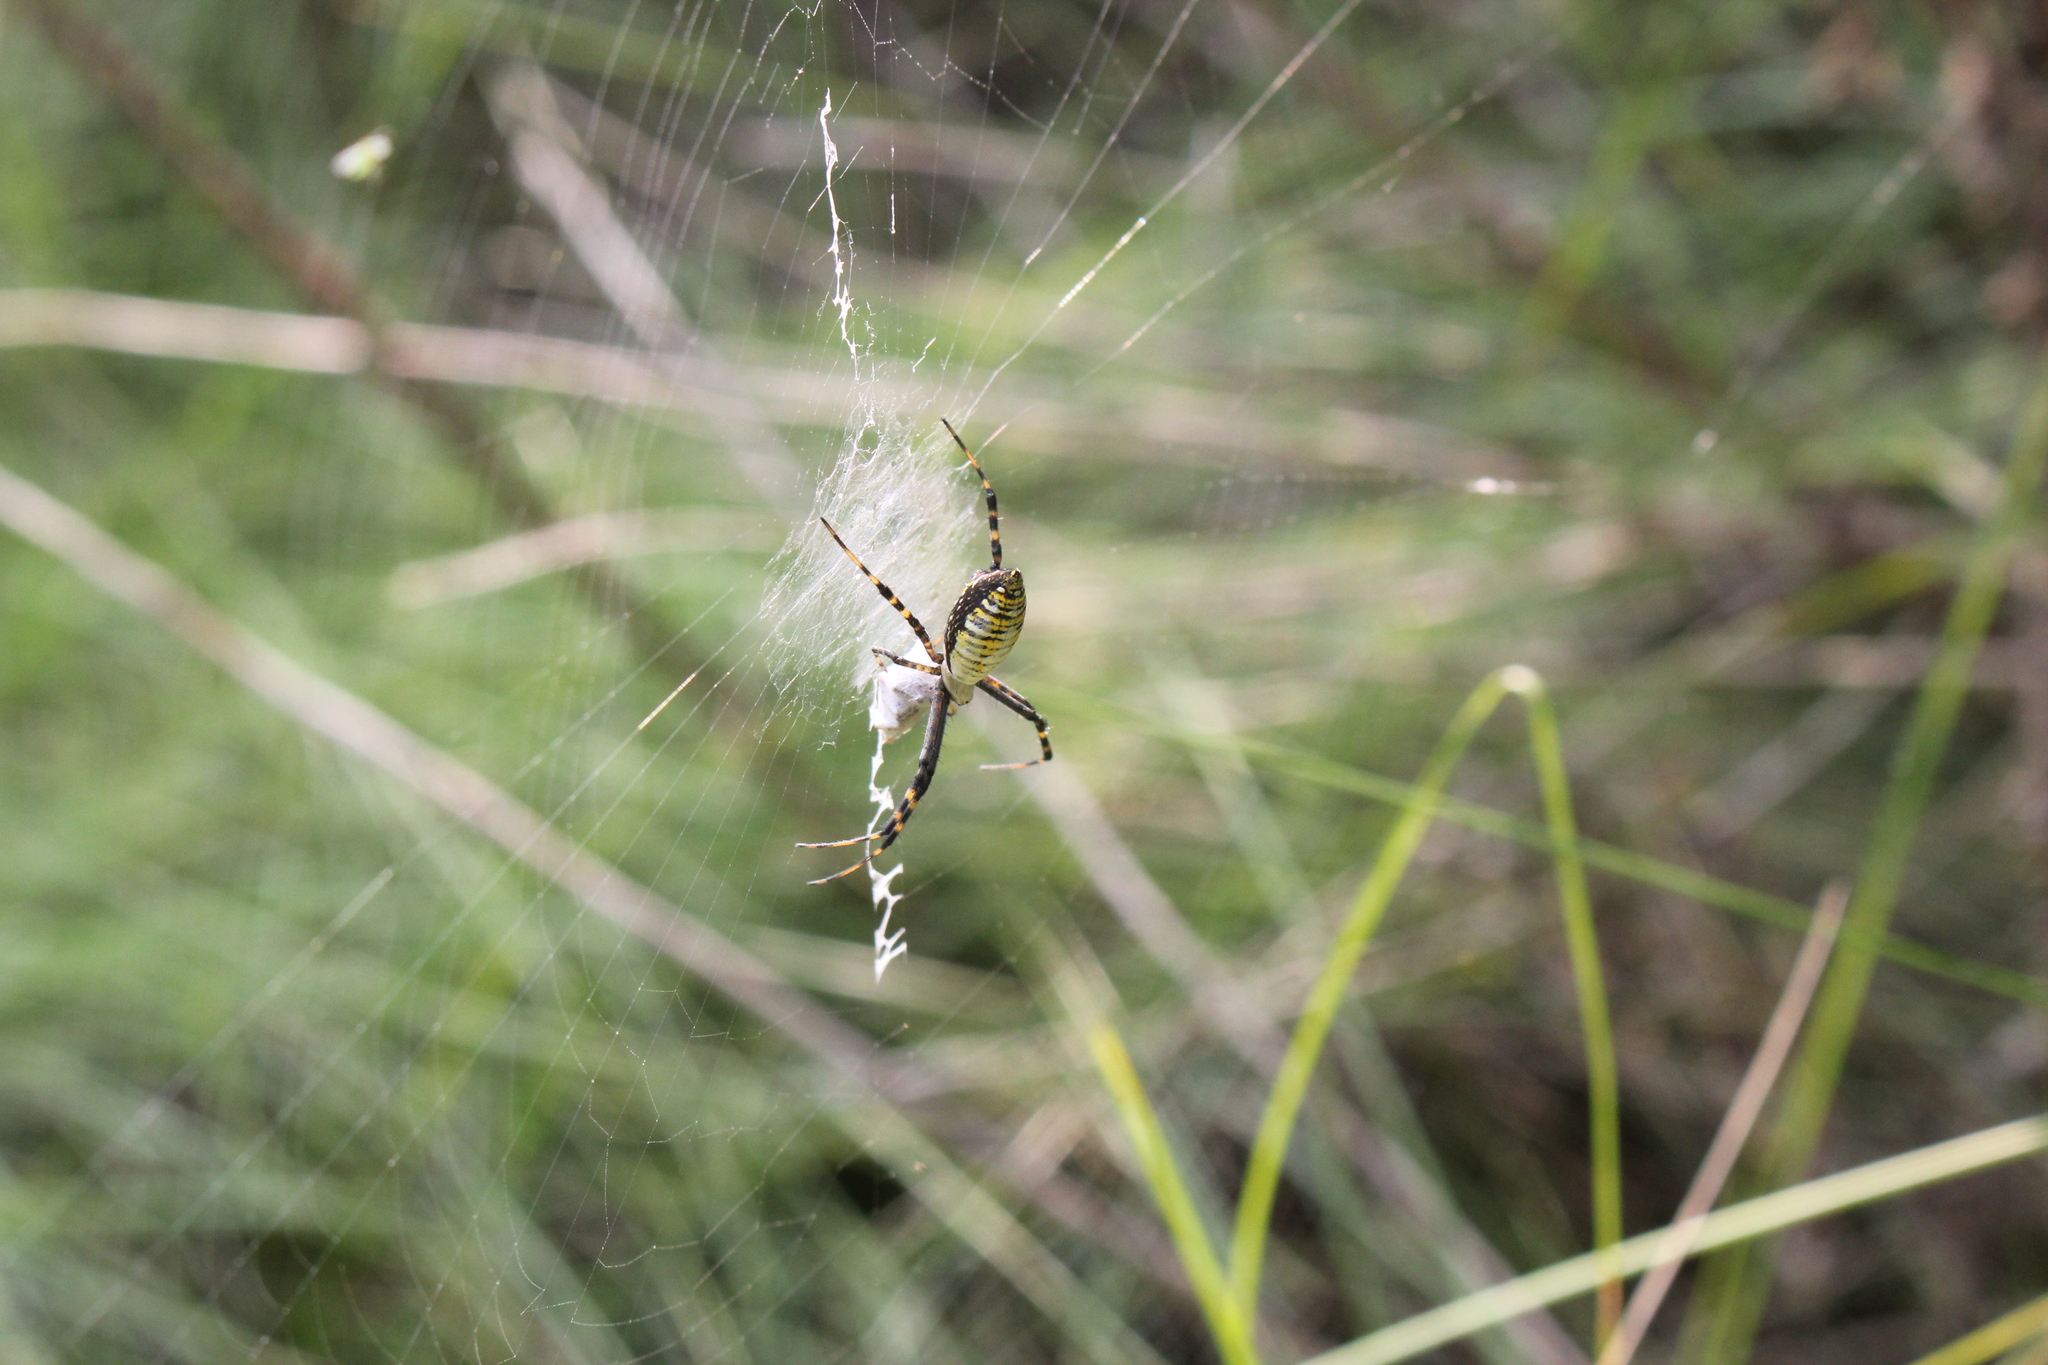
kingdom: Animalia
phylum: Arthropoda
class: Arachnida
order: Araneae
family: Araneidae
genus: Argiope
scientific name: Argiope trifasciata
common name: Banded garden spider
